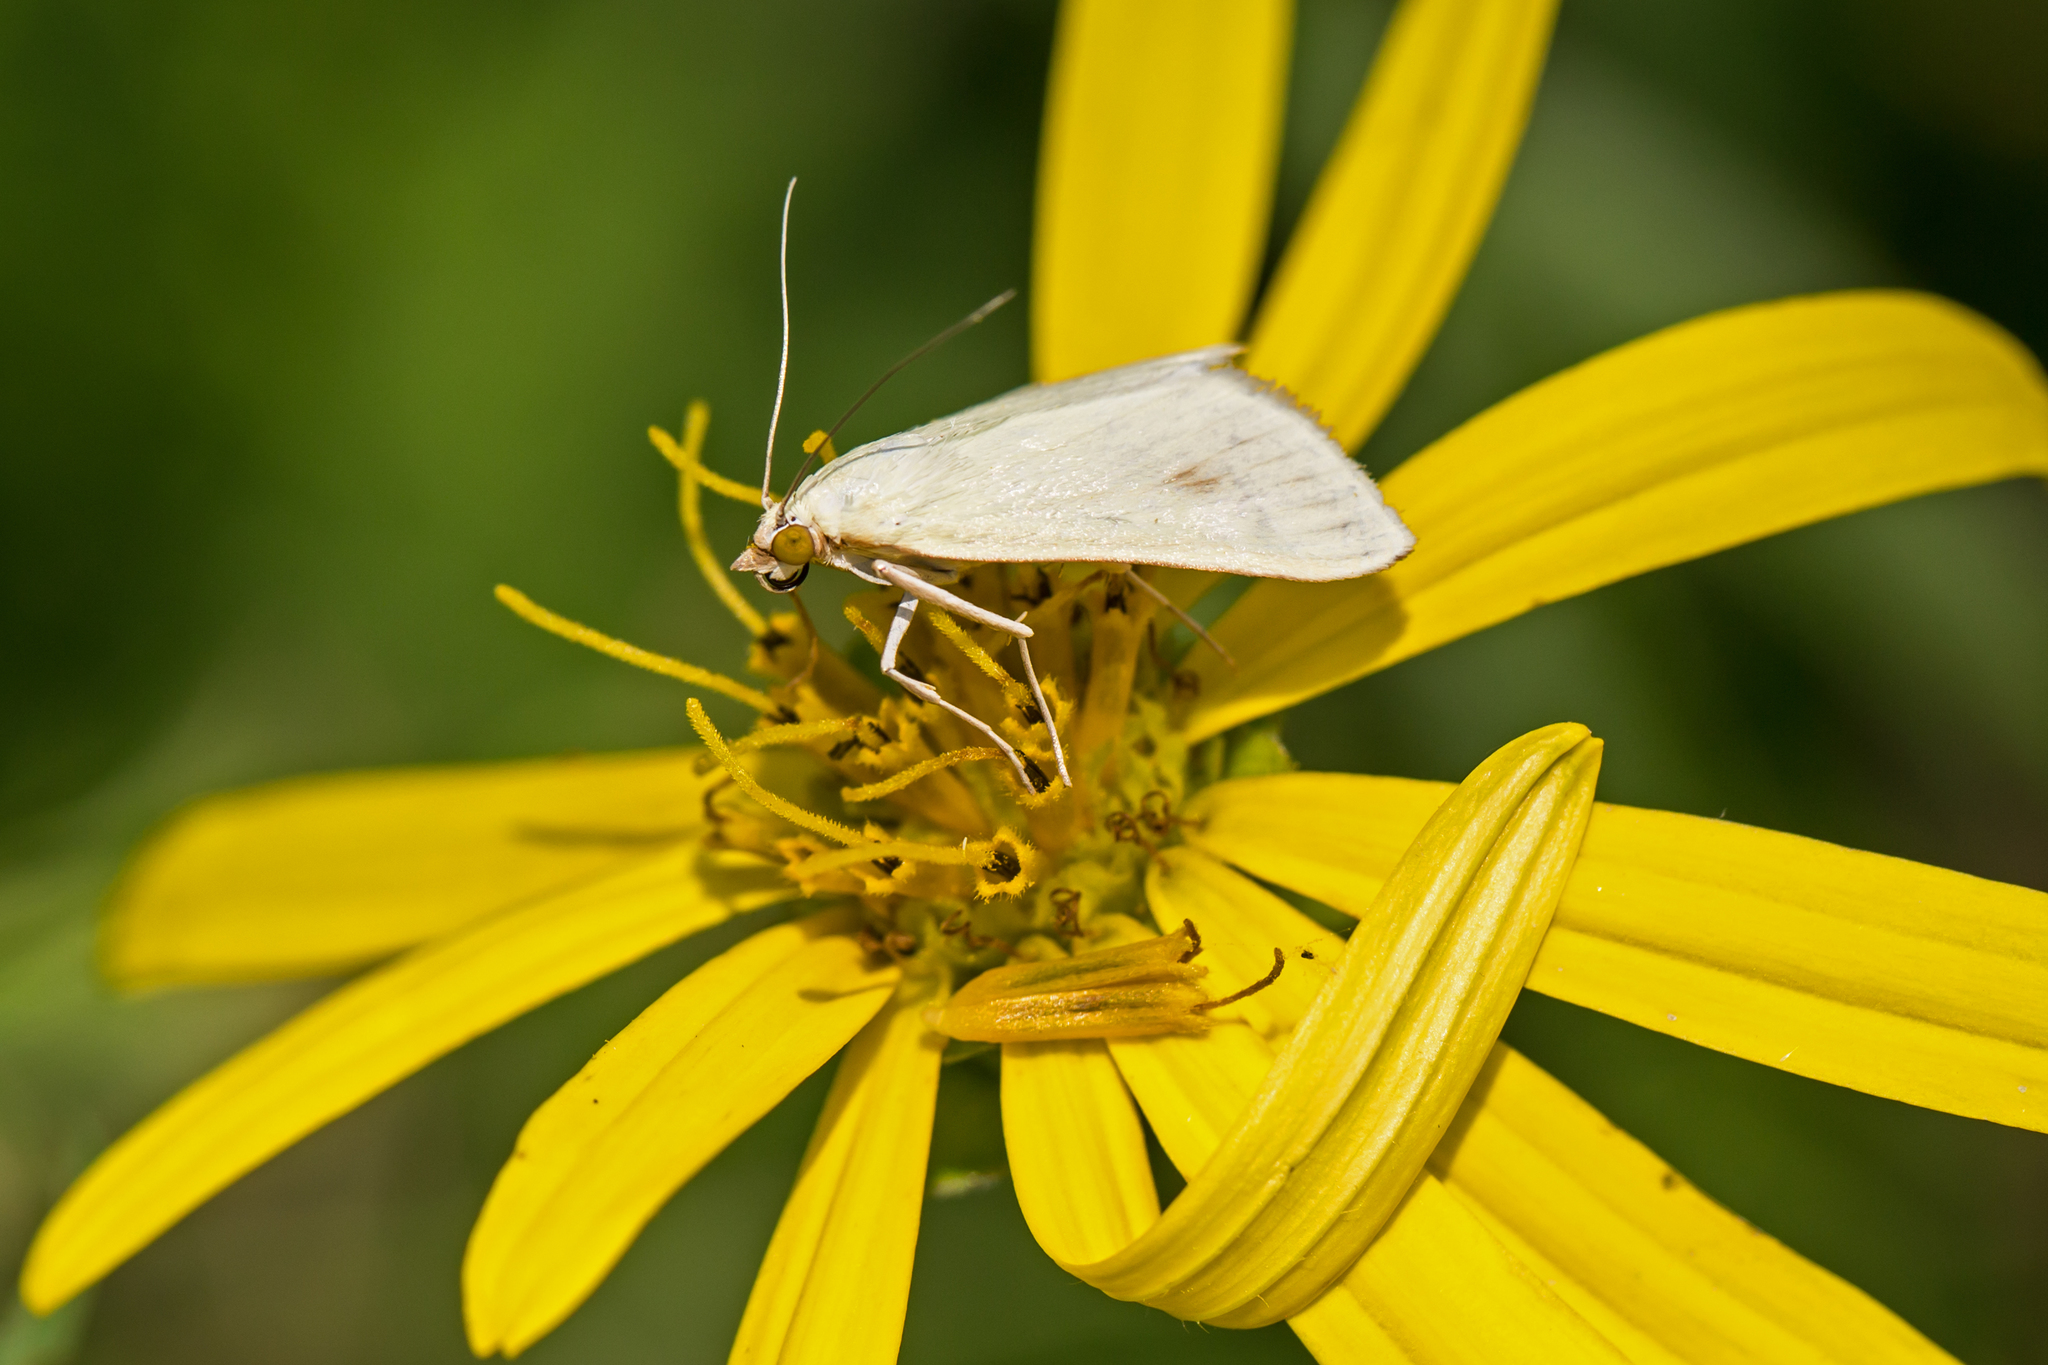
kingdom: Animalia
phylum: Arthropoda
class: Insecta
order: Lepidoptera
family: Crambidae
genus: Sitochroa
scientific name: Sitochroa palealis
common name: Greenish-yellow sitochroa moth
